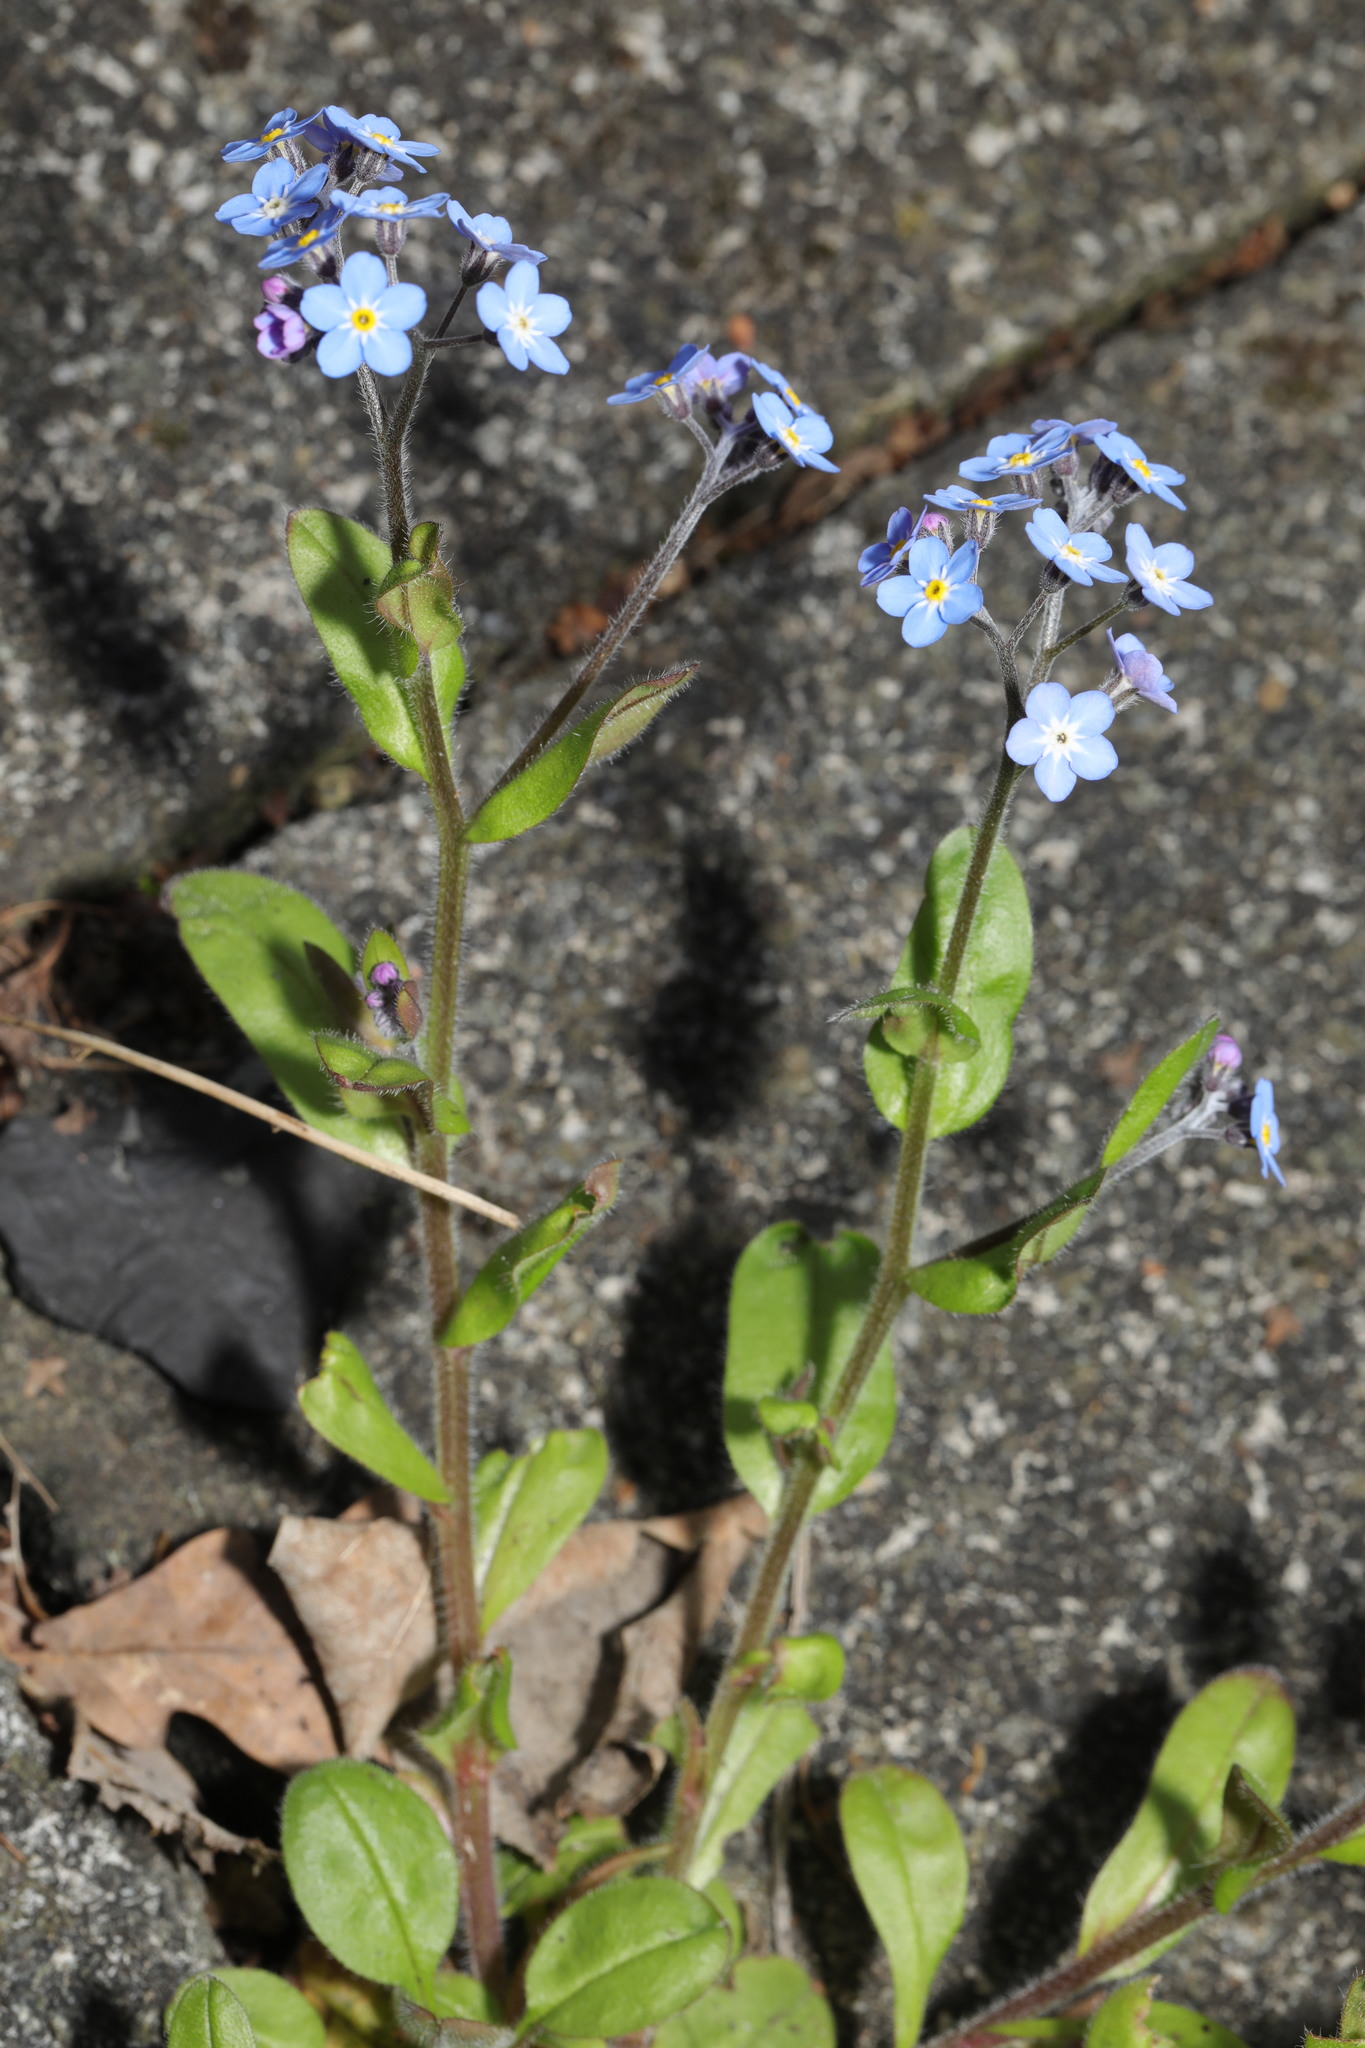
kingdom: Plantae
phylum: Tracheophyta
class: Magnoliopsida
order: Boraginales
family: Boraginaceae
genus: Myosotis
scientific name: Myosotis sylvatica
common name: Wood forget-me-not
